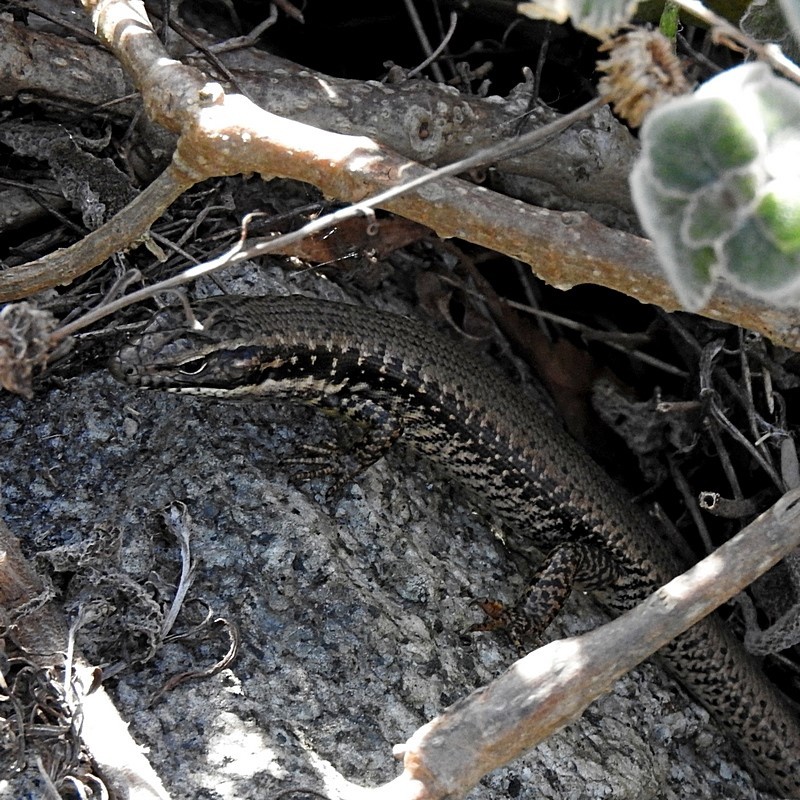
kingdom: Animalia
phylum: Chordata
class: Squamata
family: Scincidae
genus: Eulamprus
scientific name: Eulamprus heatwolei
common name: Warm-temperate water-skink
